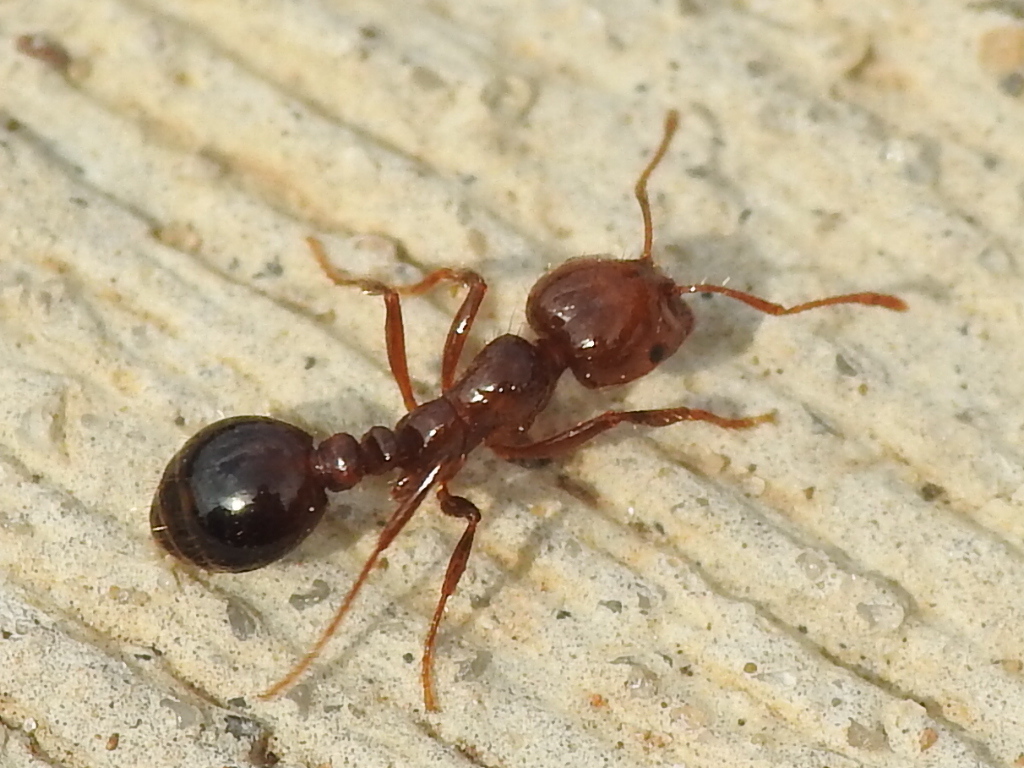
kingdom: Animalia
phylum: Arthropoda
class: Insecta
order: Hymenoptera
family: Formicidae
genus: Solenopsis
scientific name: Solenopsis invicta
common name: Red imported fire ant
